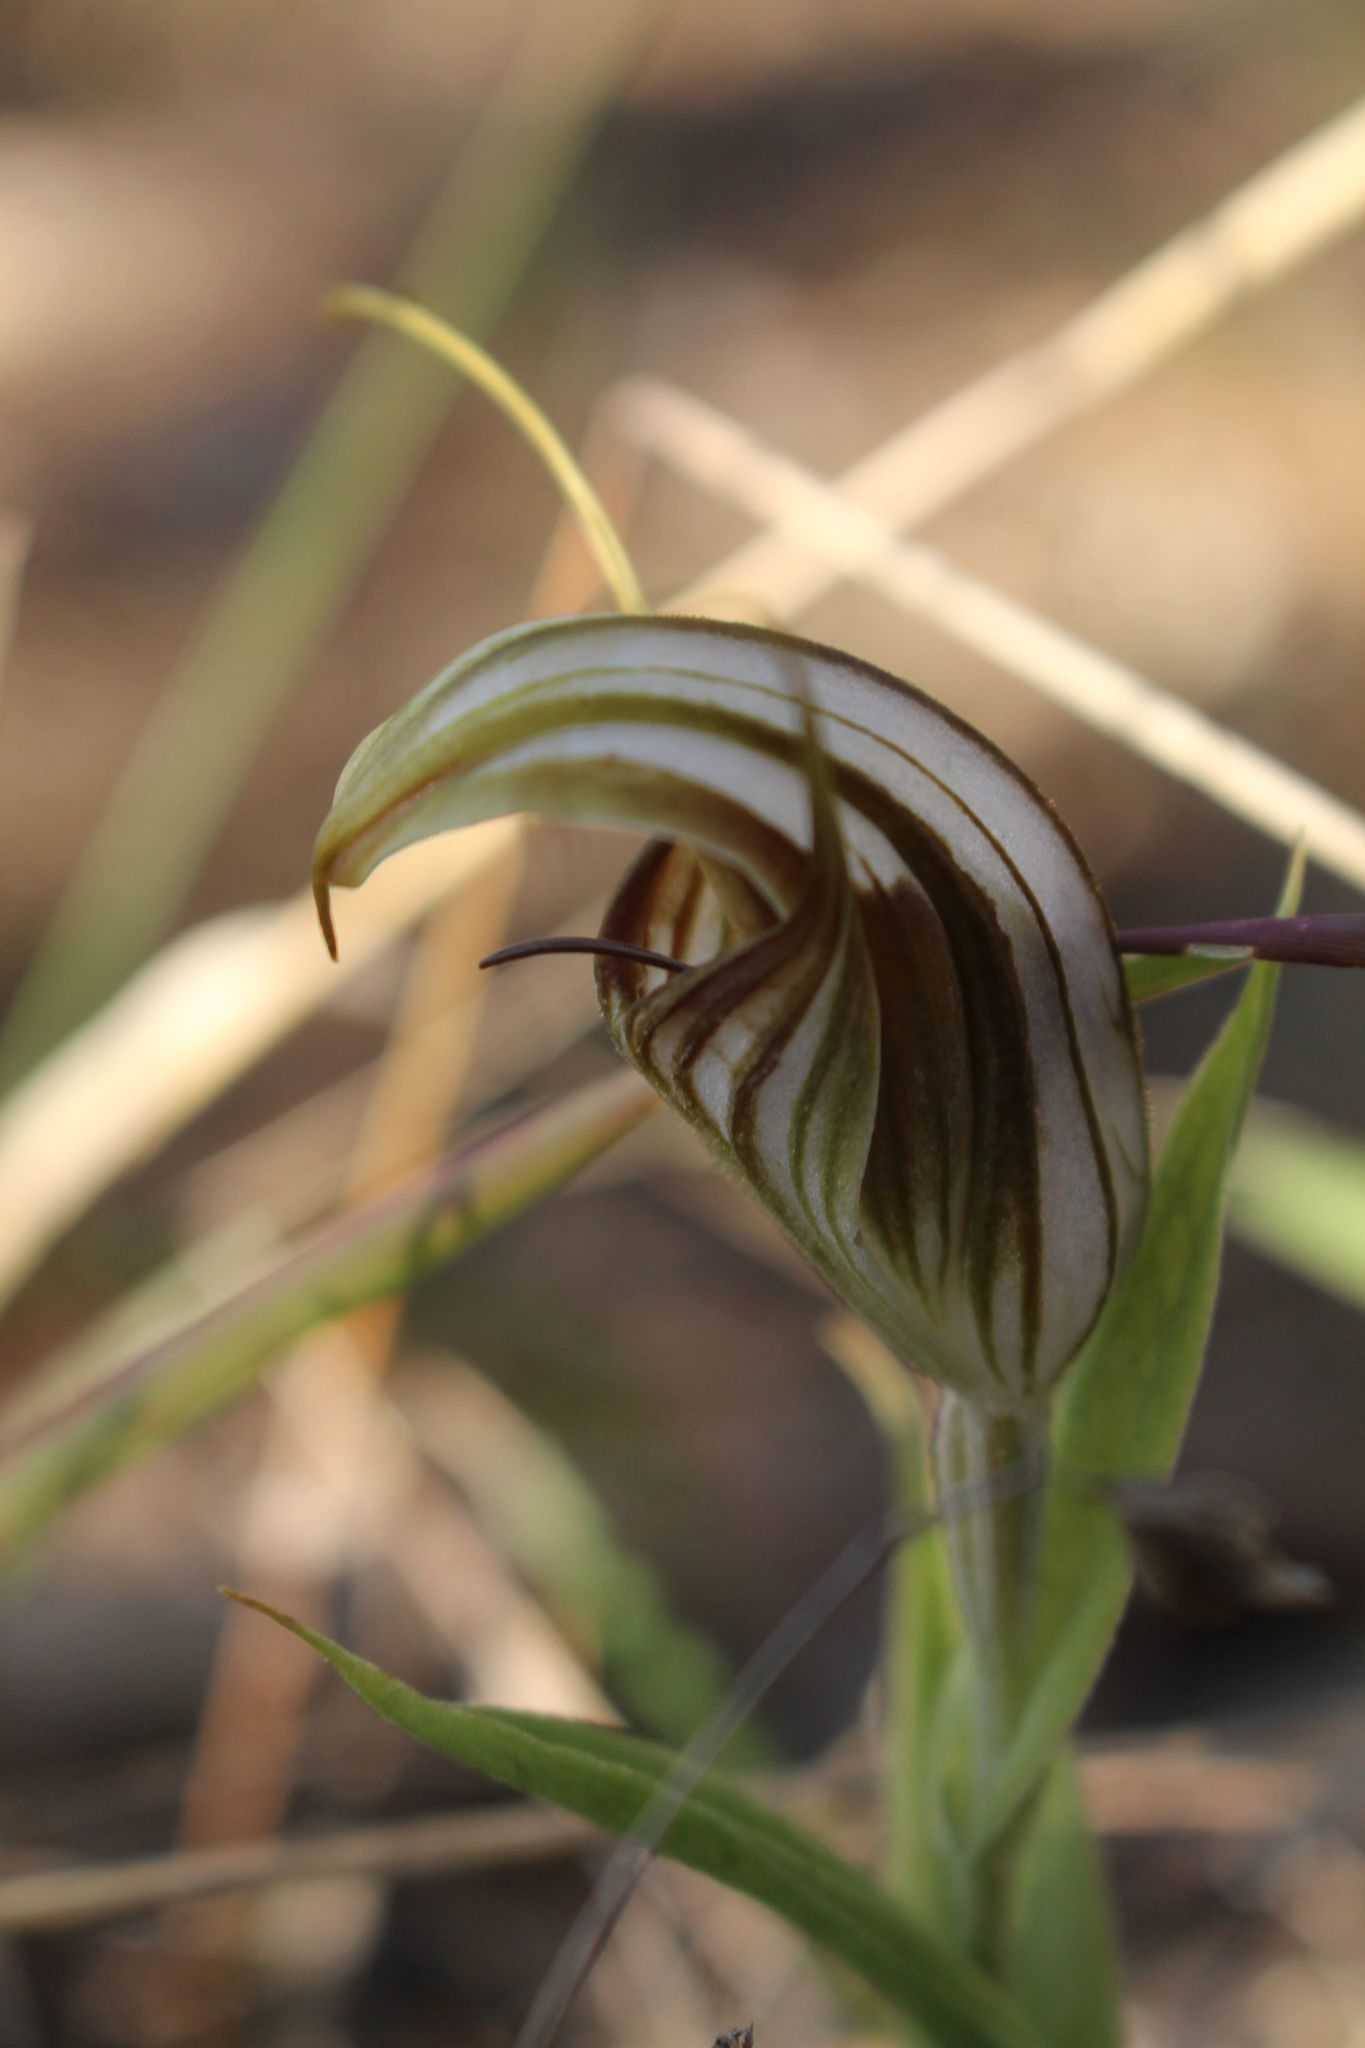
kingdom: Plantae
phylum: Tracheophyta
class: Liliopsida
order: Asparagales
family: Orchidaceae
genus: Pterostylis
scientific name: Pterostylis hamiltonii
